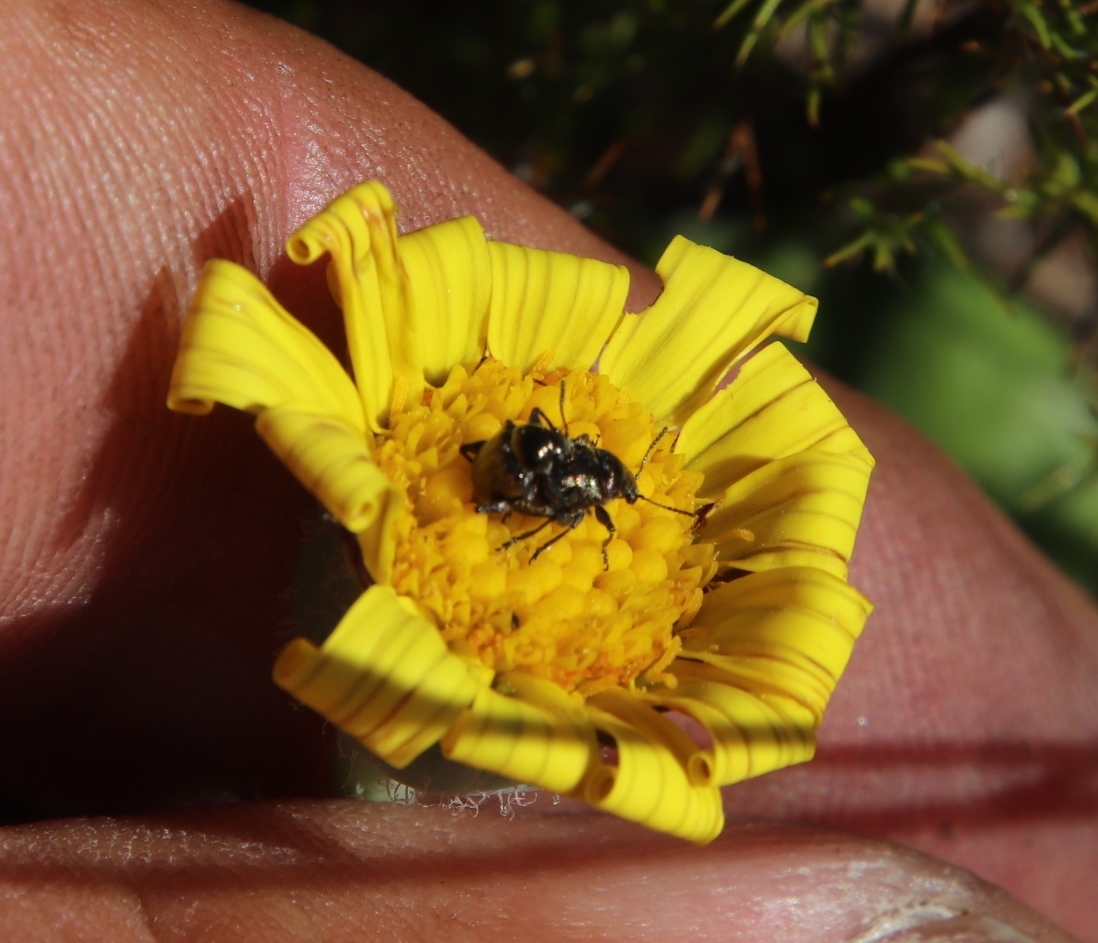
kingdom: Plantae
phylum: Tracheophyta
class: Magnoliopsida
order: Asterales
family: Asteraceae
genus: Othonna
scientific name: Othonna heterophylla
